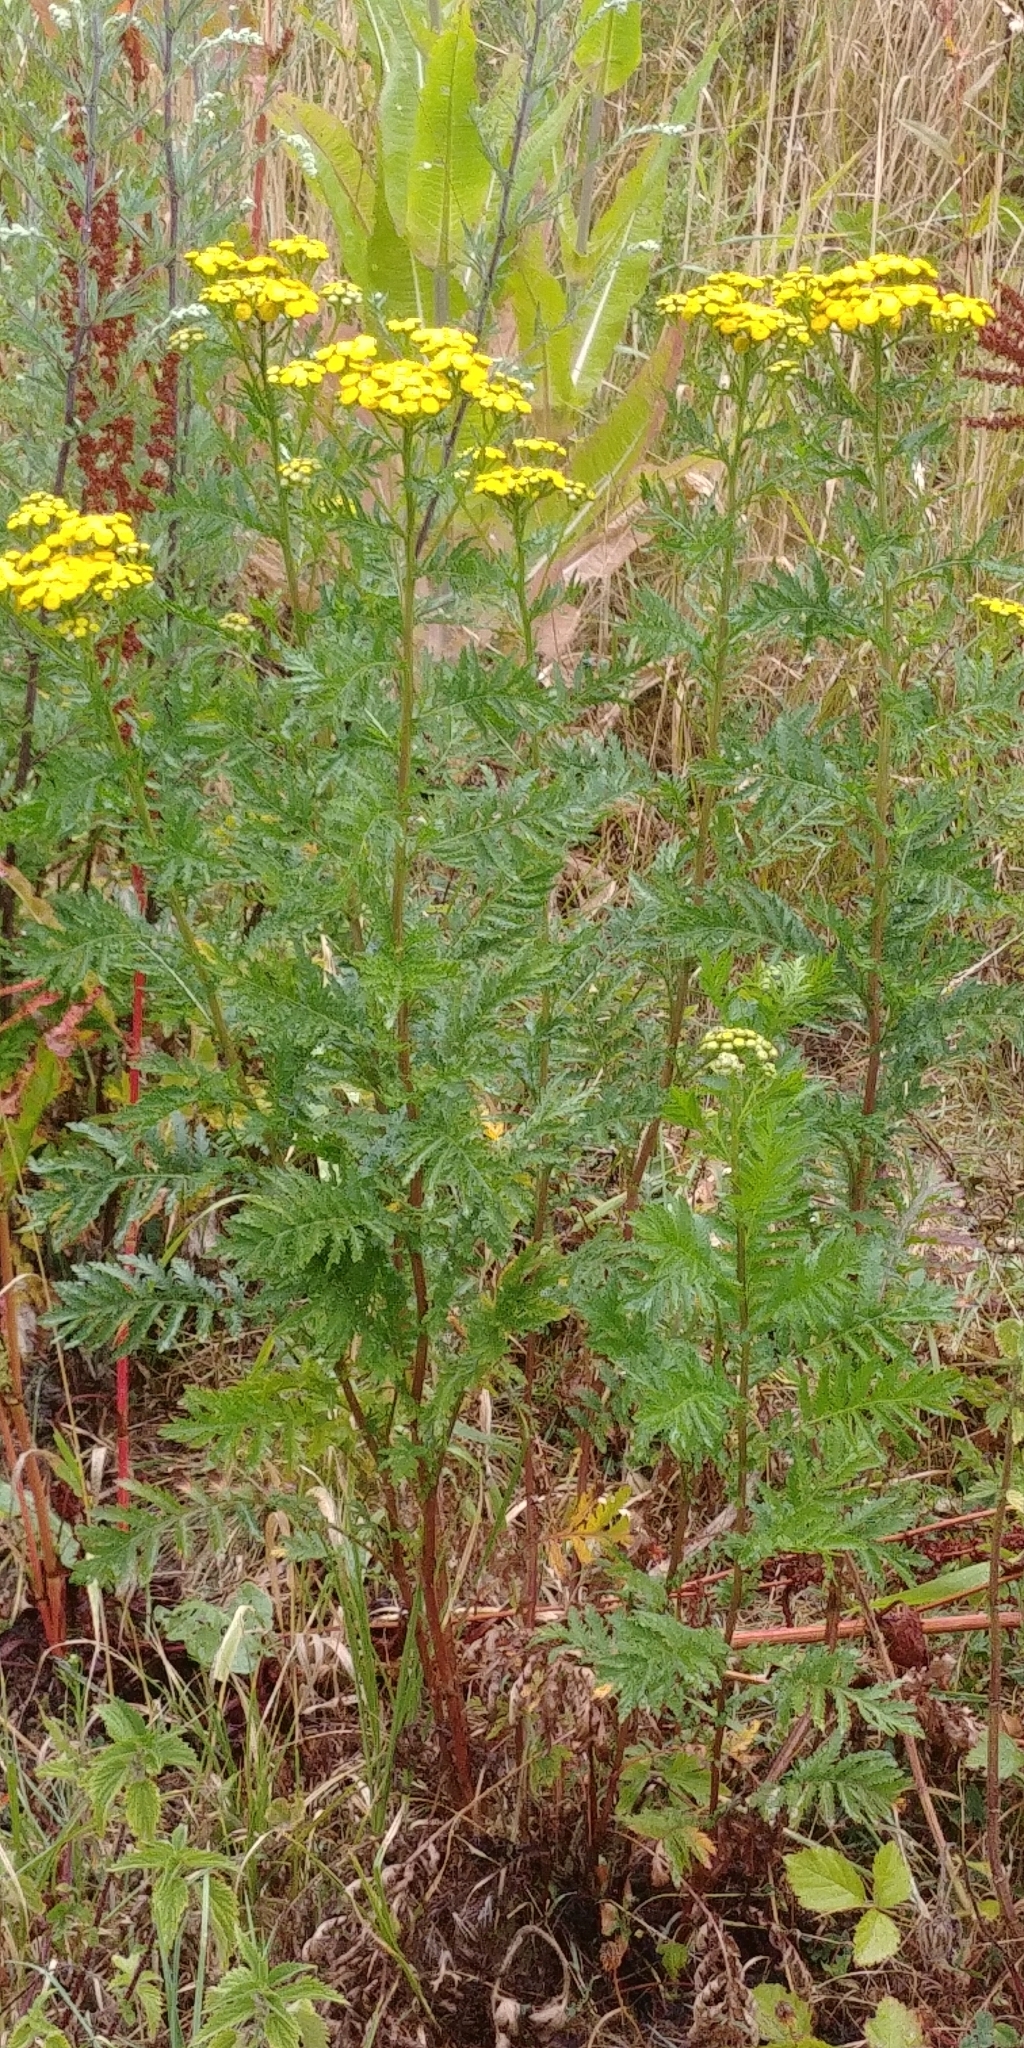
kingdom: Plantae
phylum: Tracheophyta
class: Magnoliopsida
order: Asterales
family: Asteraceae
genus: Tanacetum
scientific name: Tanacetum vulgare
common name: Common tansy
